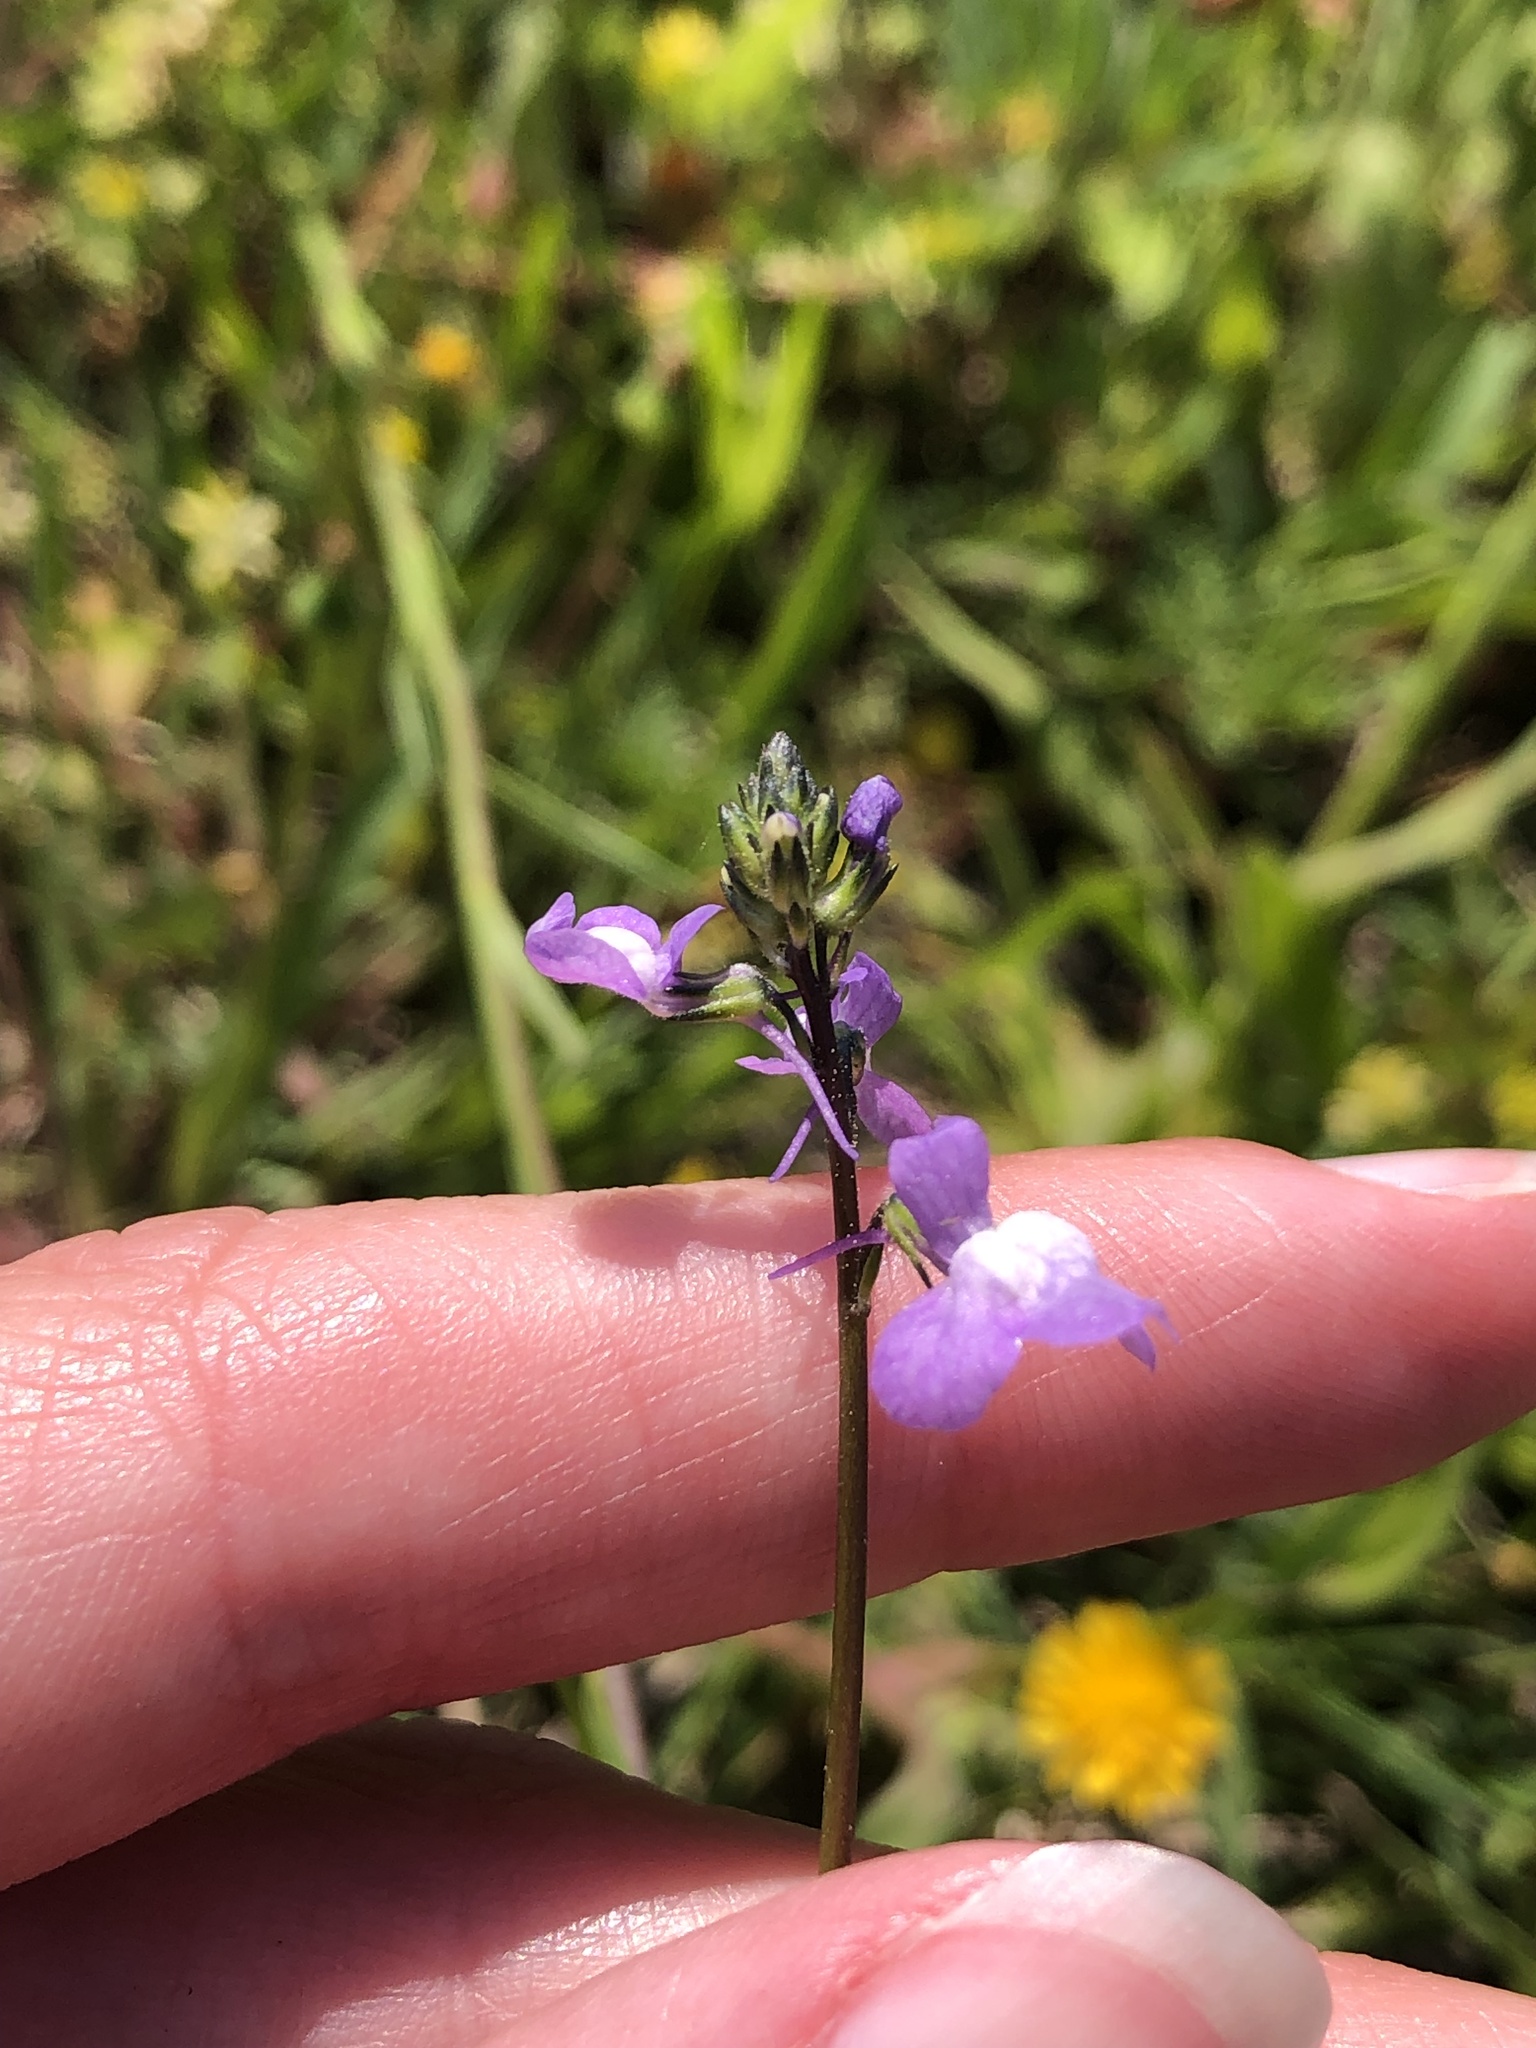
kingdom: Plantae
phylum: Tracheophyta
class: Magnoliopsida
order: Lamiales
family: Plantaginaceae
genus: Nuttallanthus
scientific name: Nuttallanthus canadensis
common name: Blue toadflax
